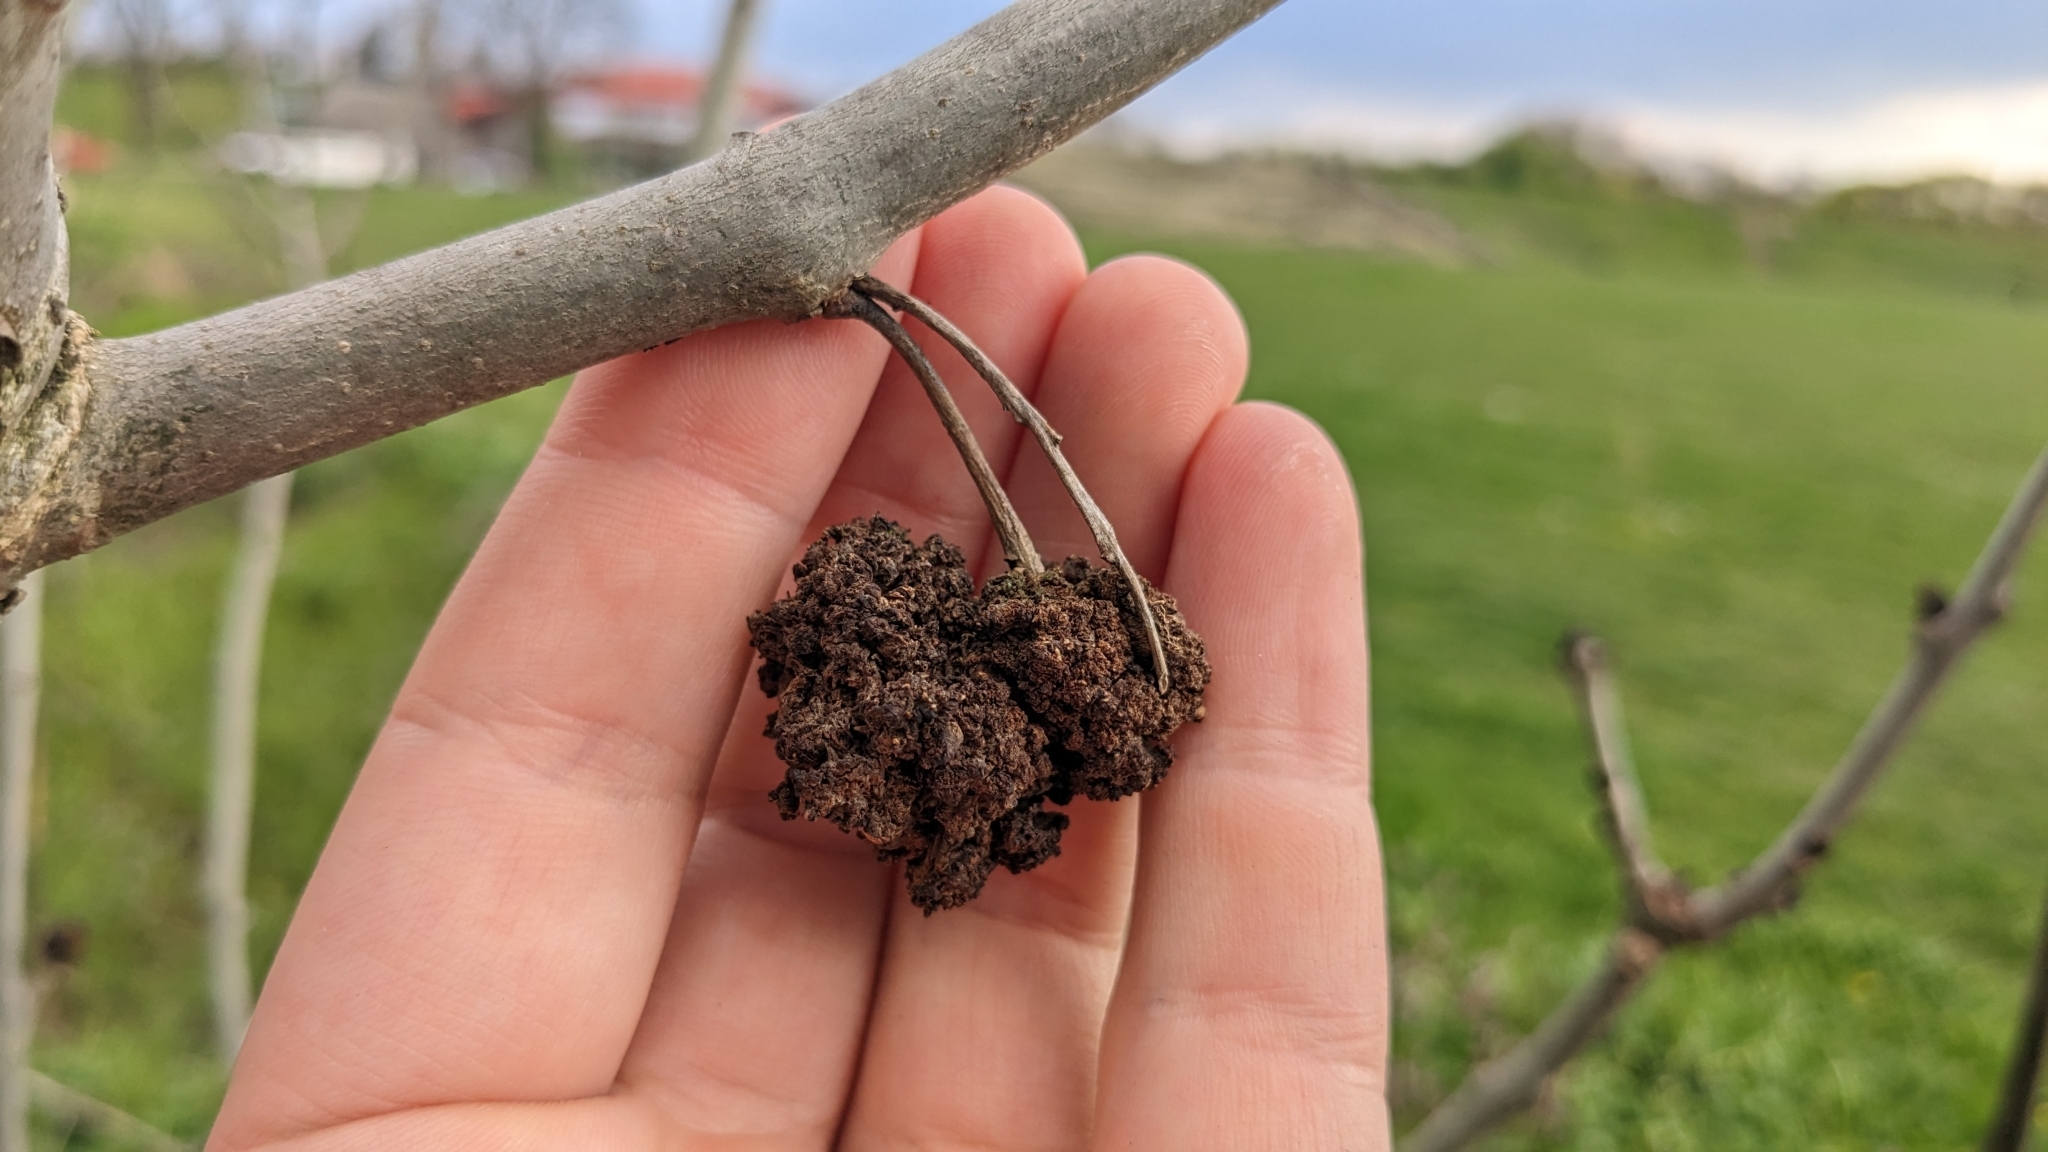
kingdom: Animalia
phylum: Arthropoda
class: Arachnida
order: Trombidiformes
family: Eriophyidae
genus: Aceria
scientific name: Aceria fraxinivora
